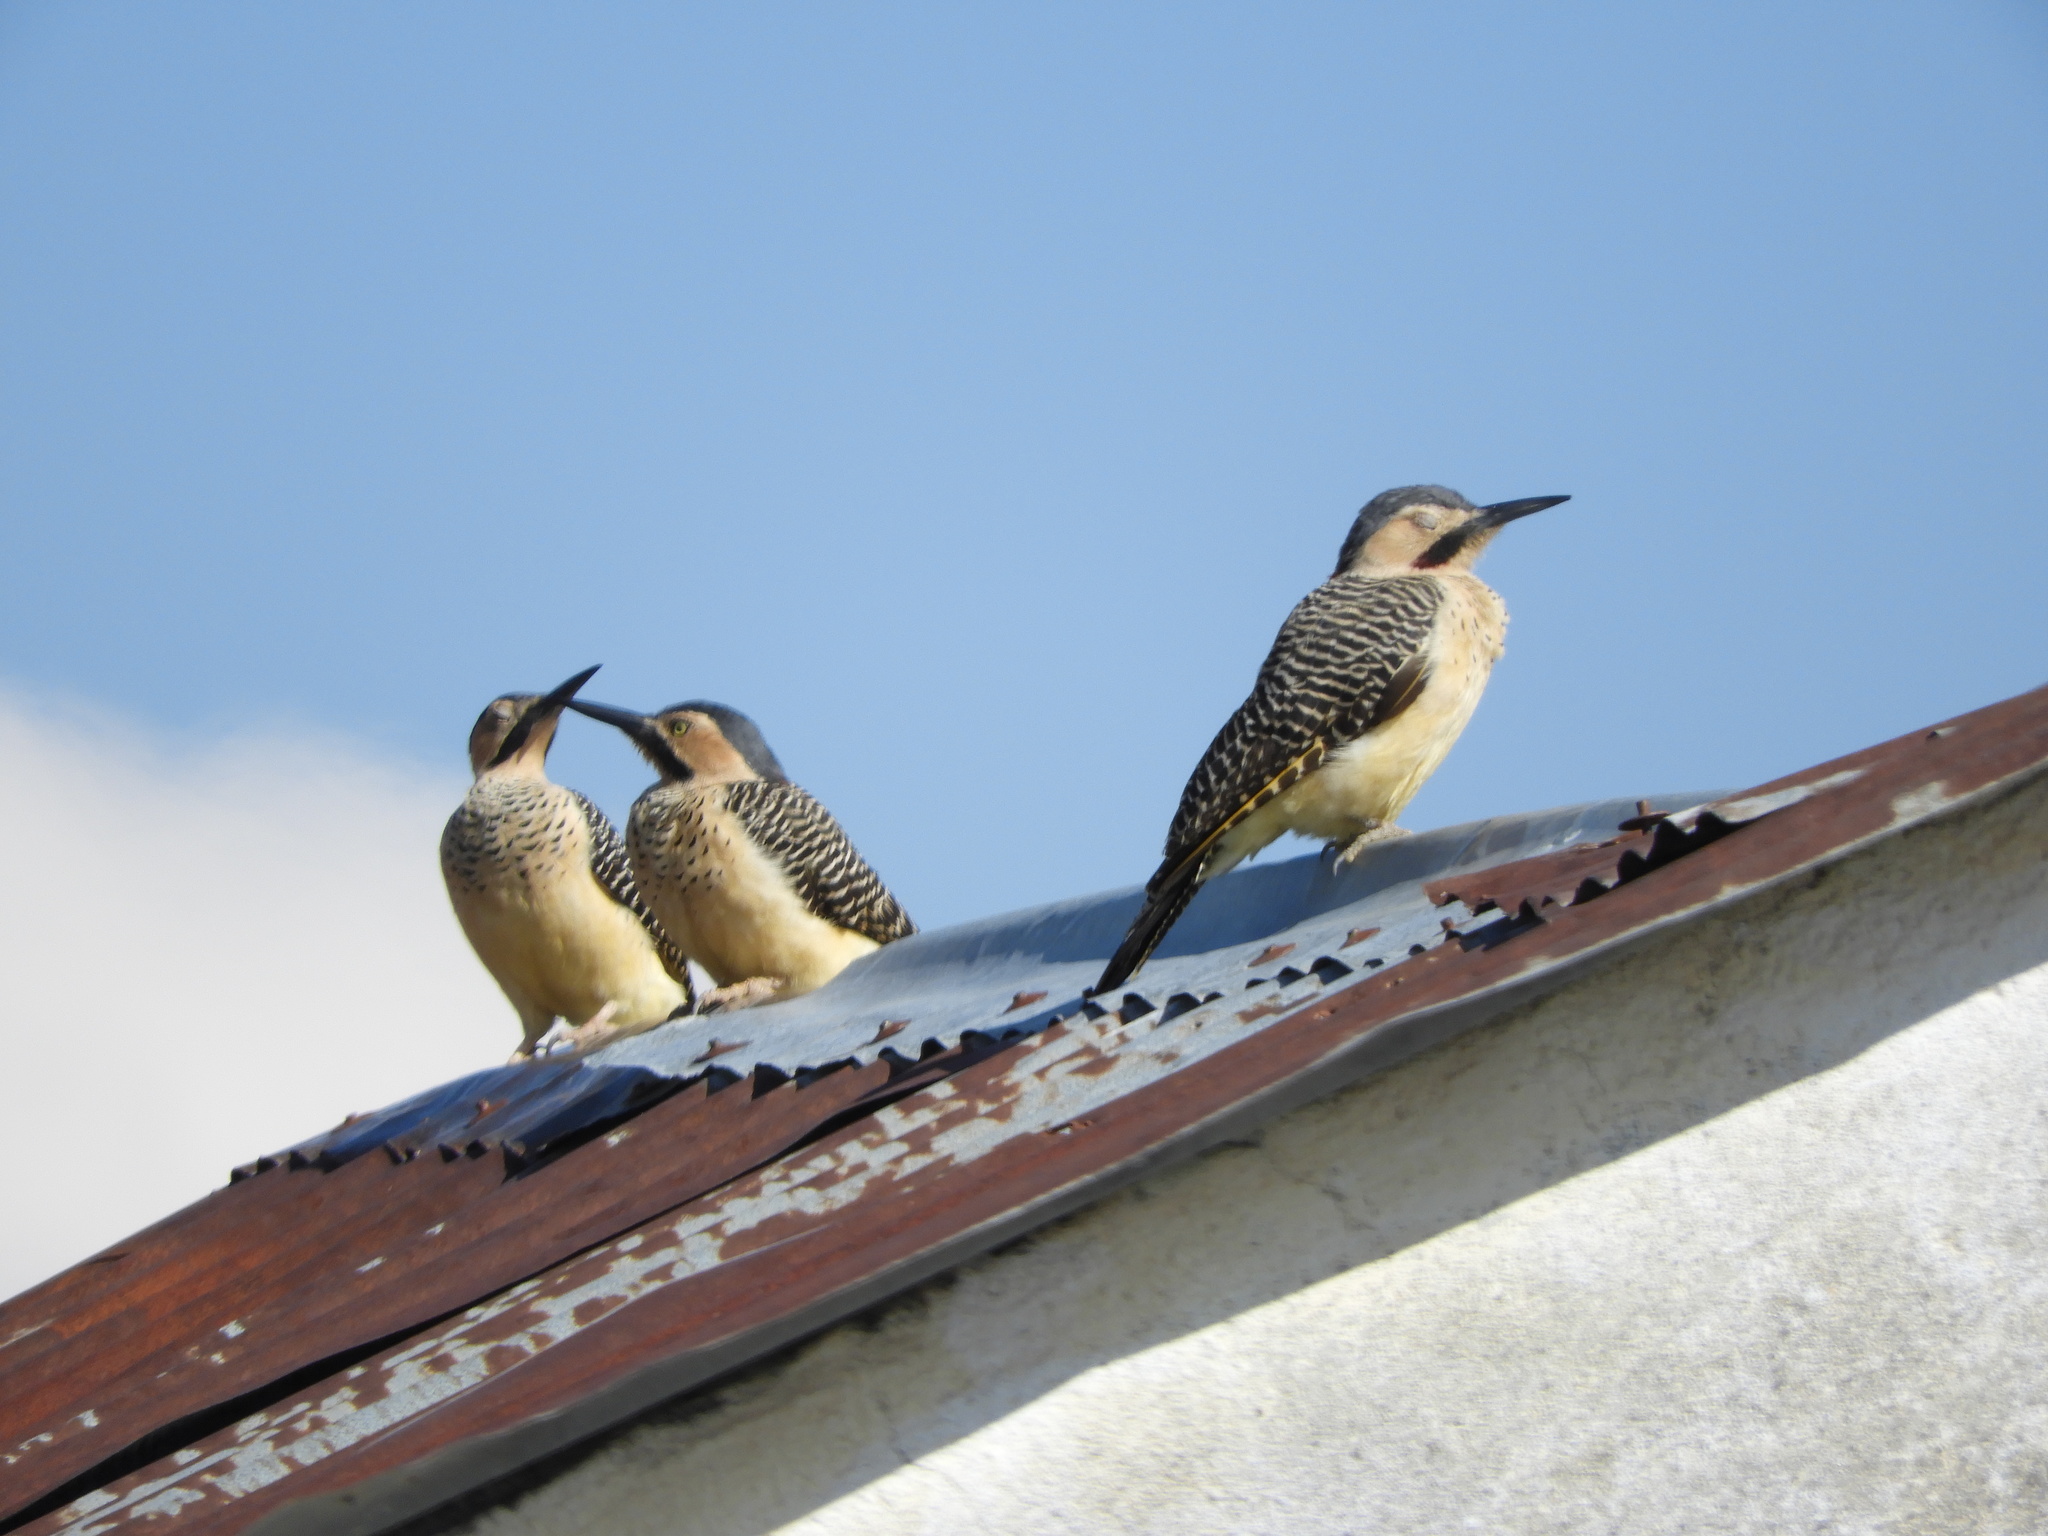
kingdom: Animalia
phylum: Chordata
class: Aves
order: Piciformes
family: Picidae
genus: Colaptes
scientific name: Colaptes rupicola
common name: Andean flicker
